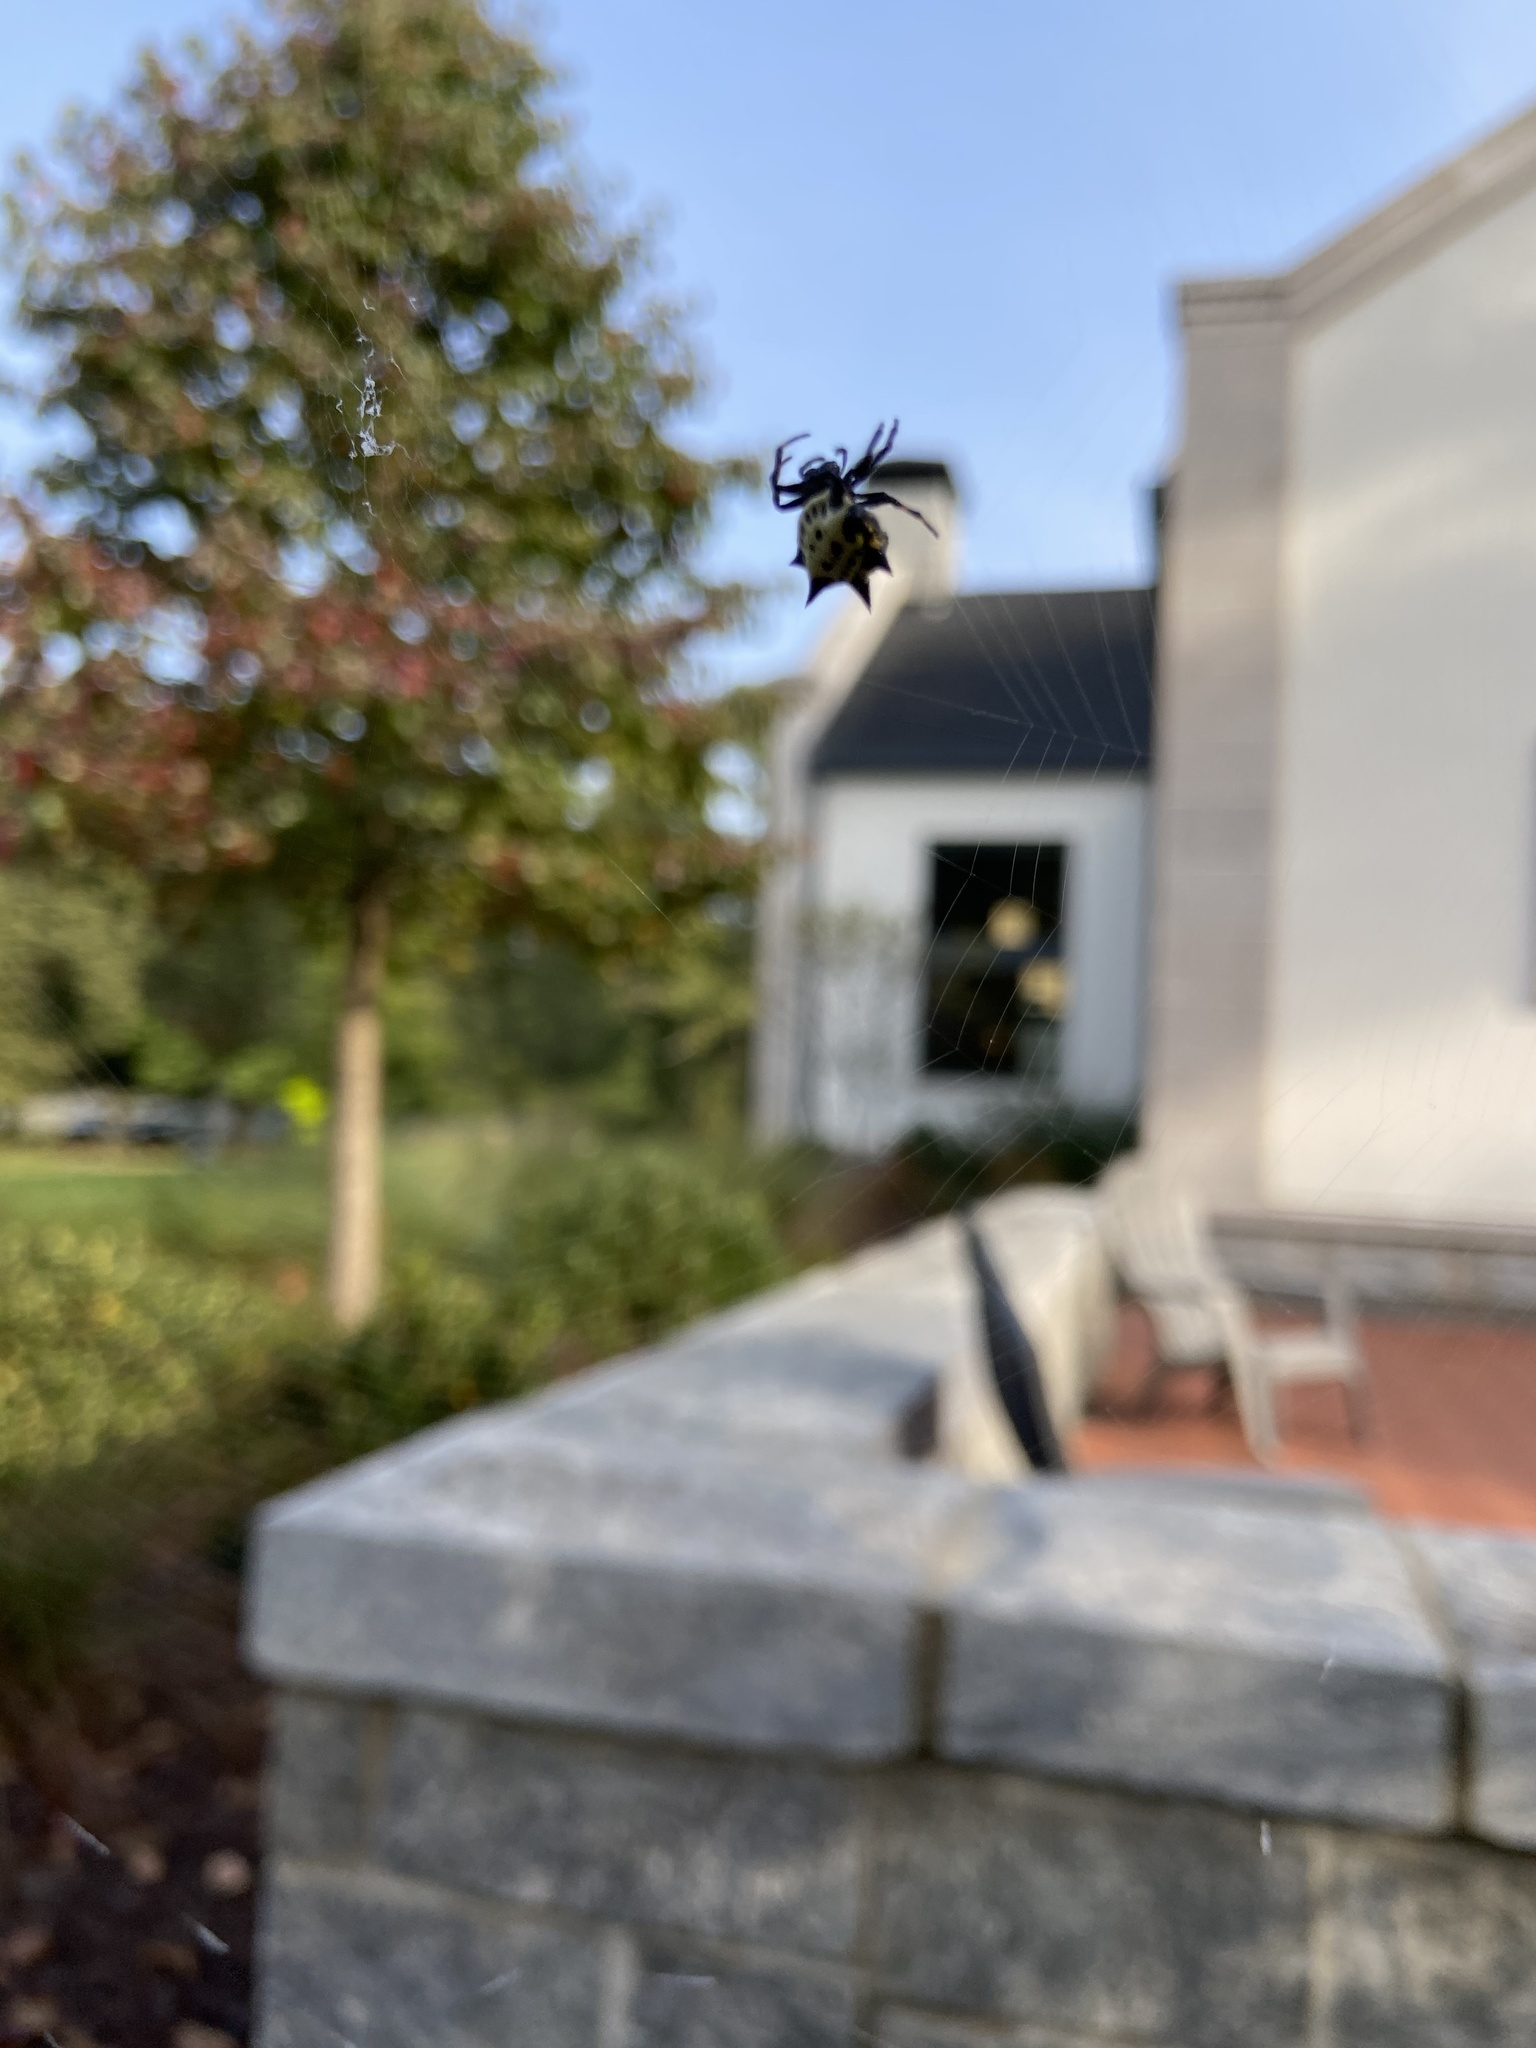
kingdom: Animalia
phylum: Arthropoda
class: Arachnida
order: Araneae
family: Araneidae
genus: Gasteracantha
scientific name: Gasteracantha cancriformis
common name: Orb weavers
